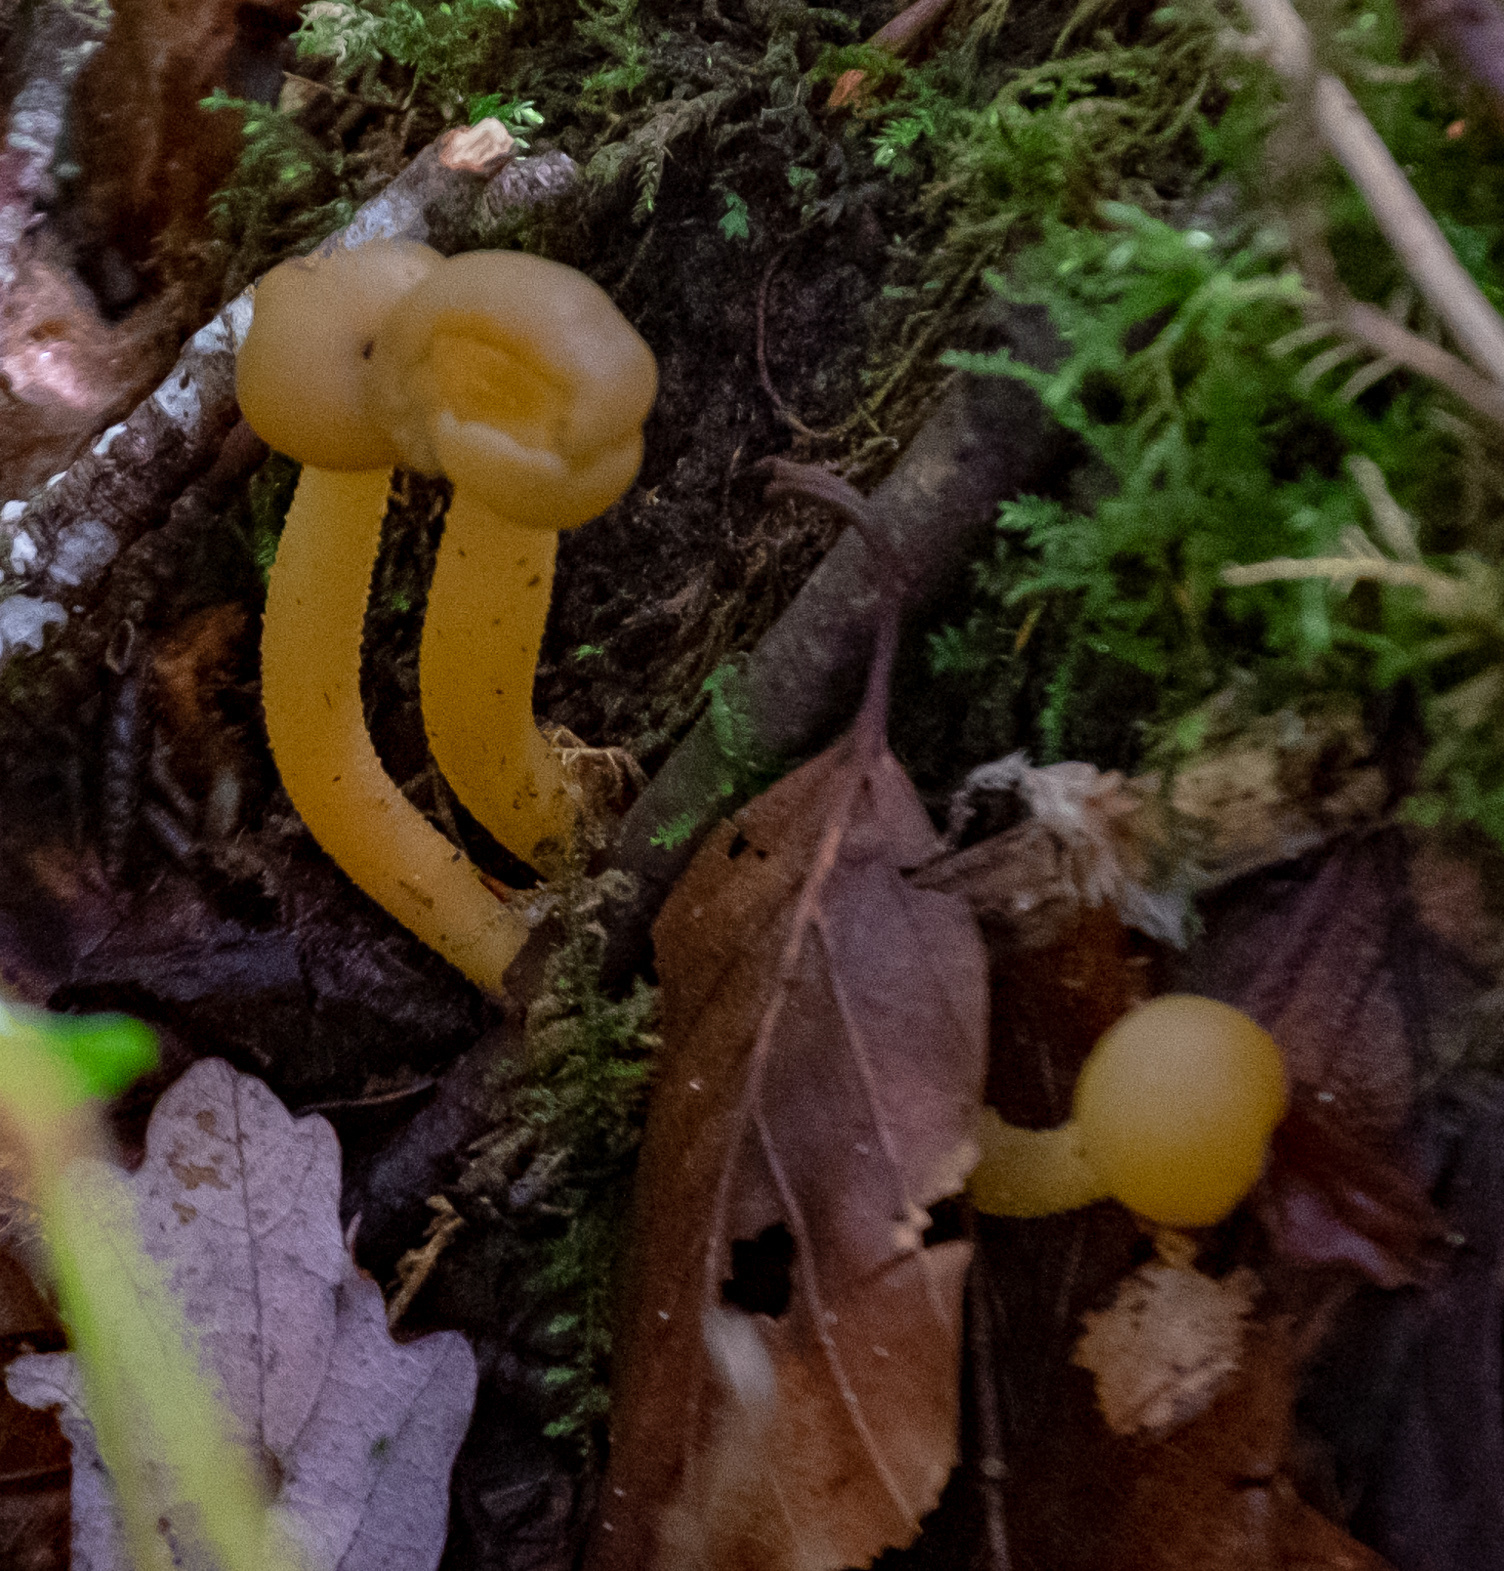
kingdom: Fungi
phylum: Ascomycota
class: Leotiomycetes
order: Leotiales
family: Leotiaceae
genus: Leotia
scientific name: Leotia lubrica
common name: Jellybaby
